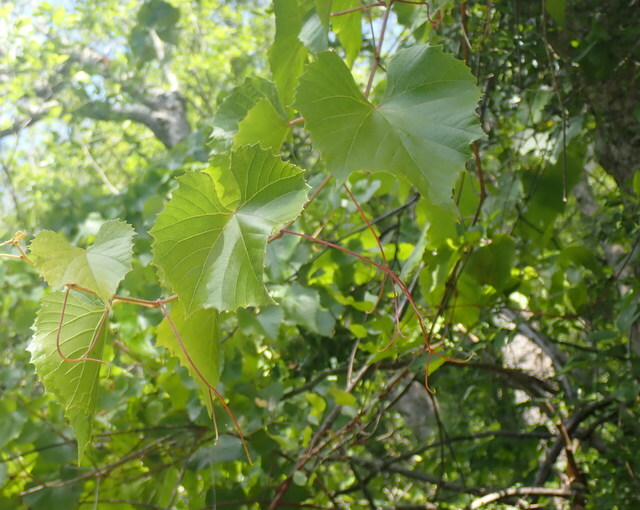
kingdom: Plantae
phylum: Tracheophyta
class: Magnoliopsida
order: Vitales
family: Vitaceae
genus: Vitis
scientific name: Vitis vulpina
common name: Frost grape
